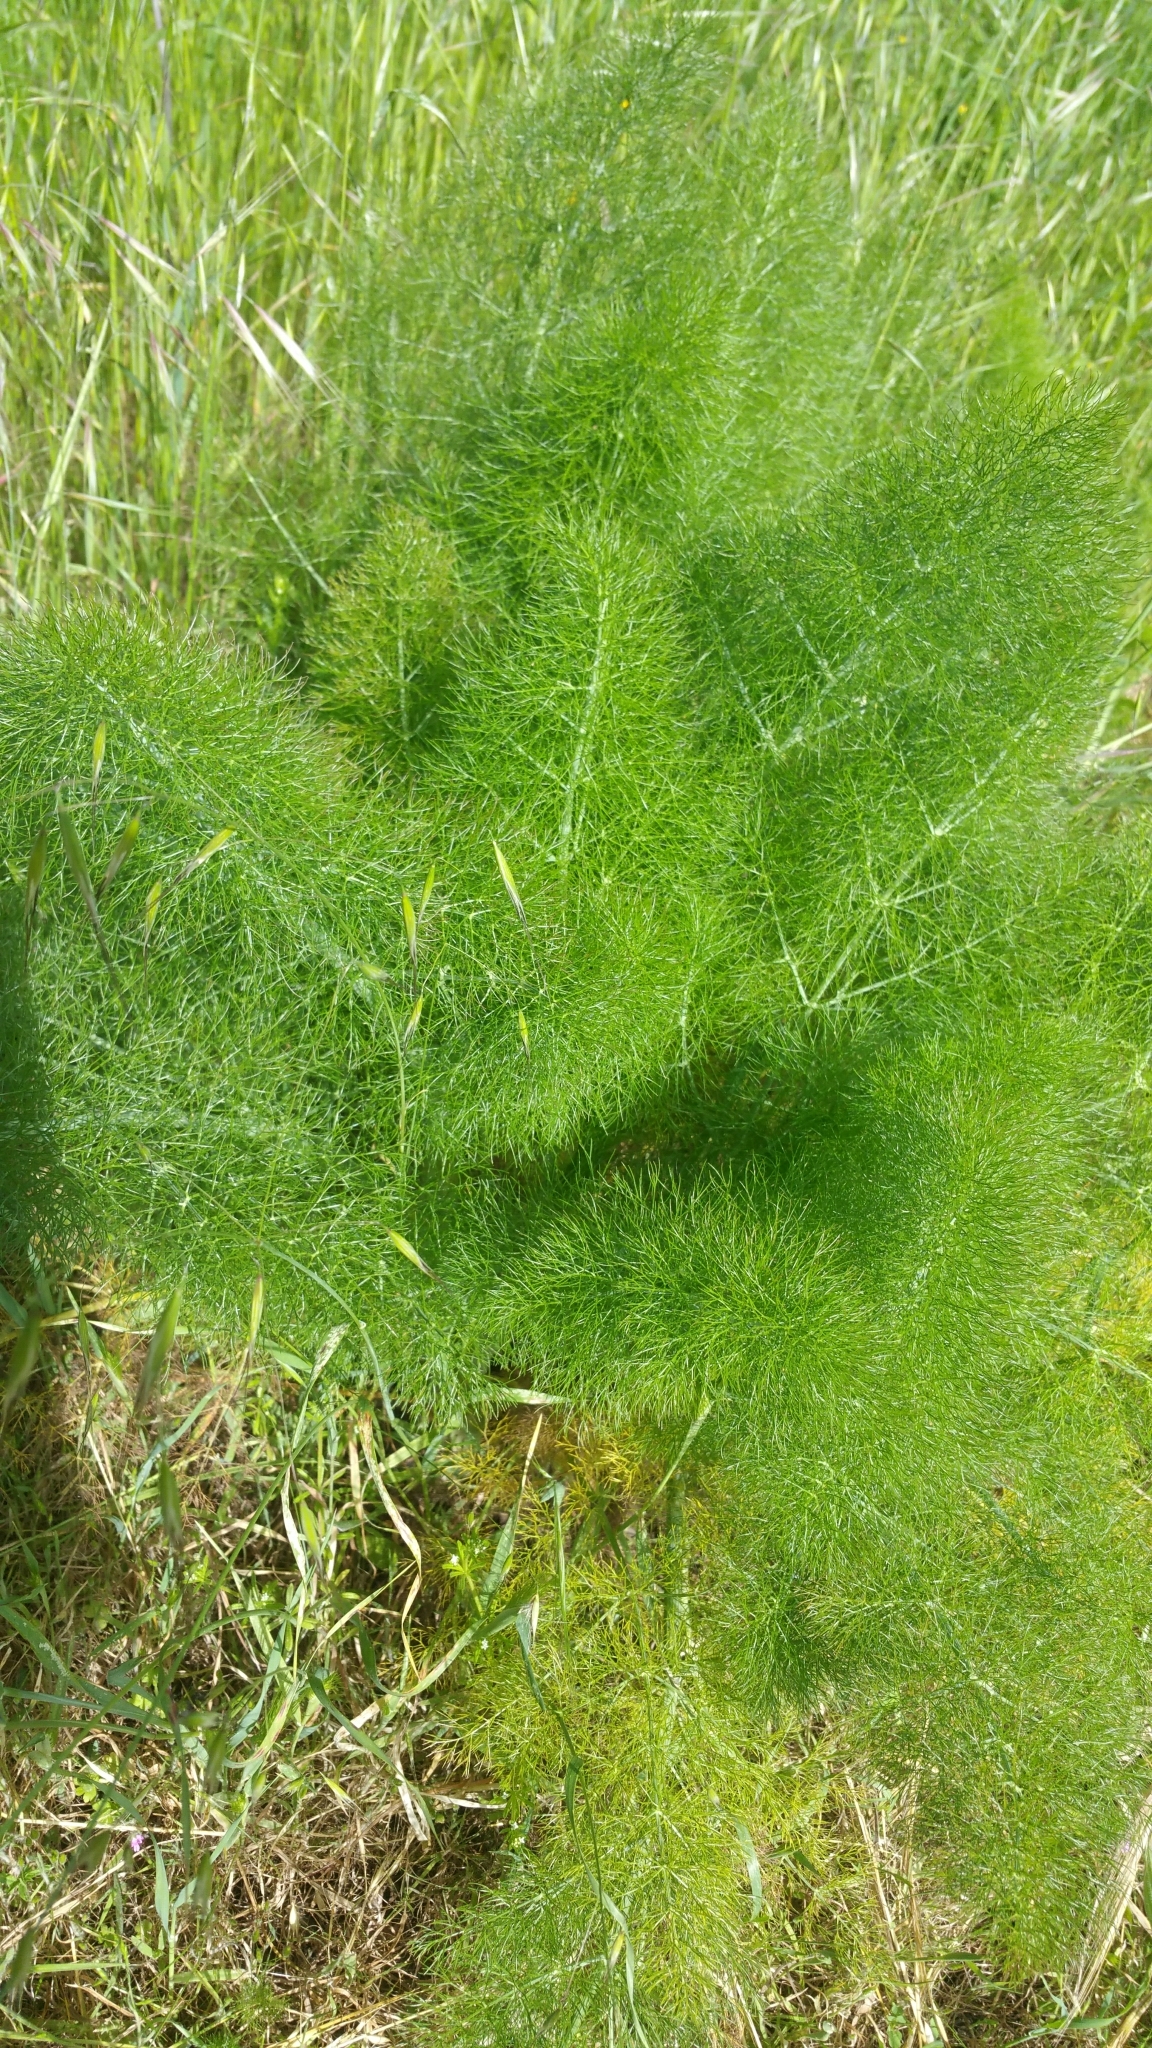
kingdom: Plantae
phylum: Tracheophyta
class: Magnoliopsida
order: Apiales
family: Apiaceae
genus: Foeniculum
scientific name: Foeniculum vulgare
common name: Fennel
